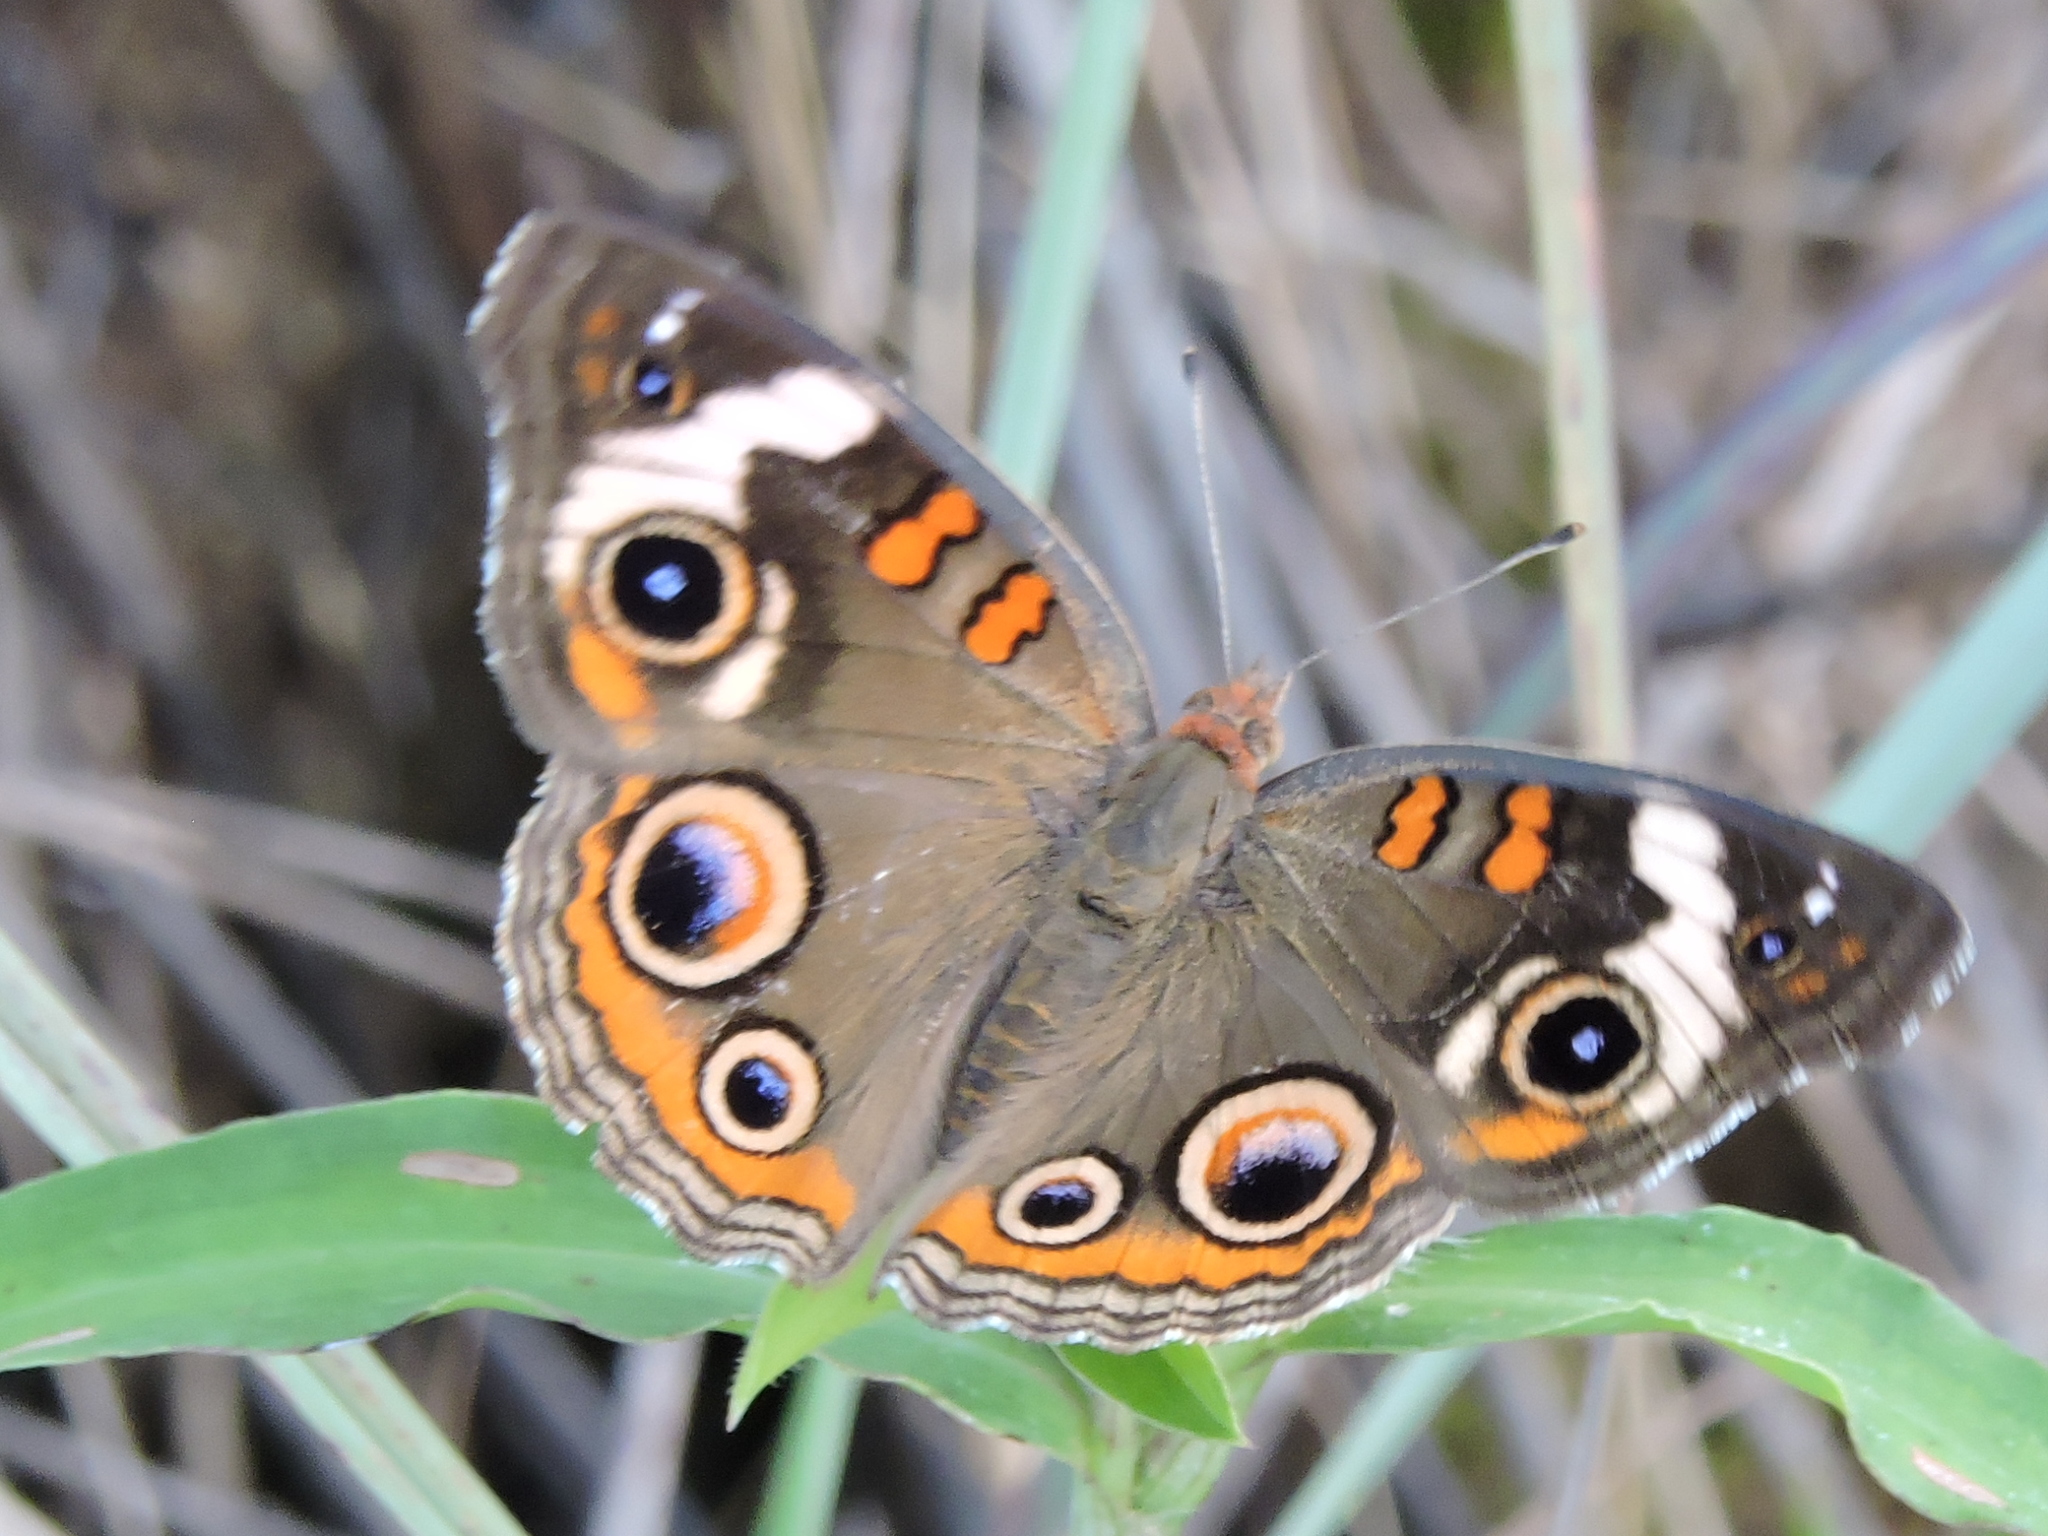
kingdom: Animalia
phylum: Arthropoda
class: Insecta
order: Lepidoptera
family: Nymphalidae
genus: Junonia
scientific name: Junonia coenia
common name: Common buckeye
